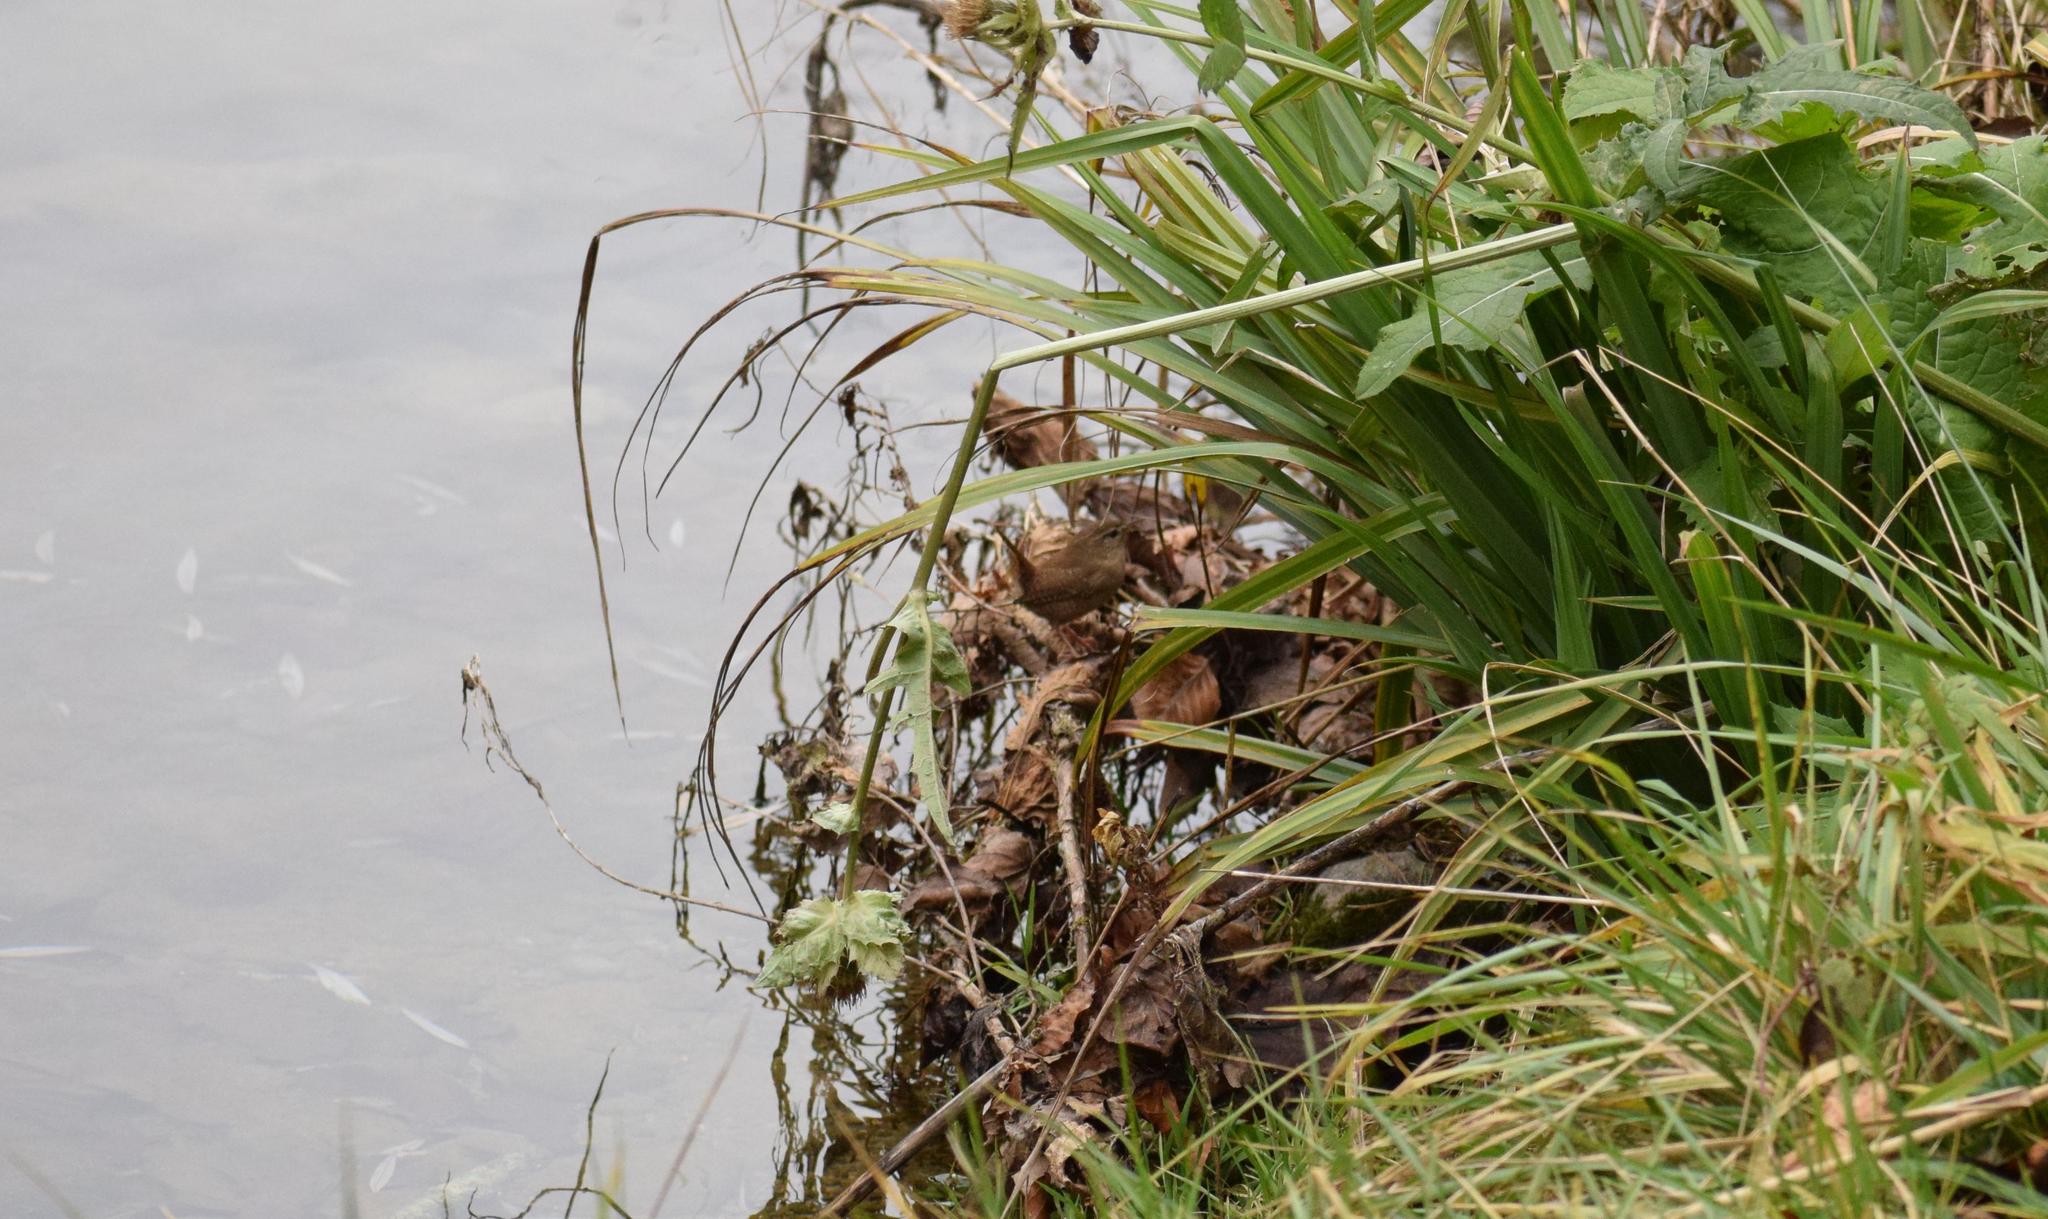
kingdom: Animalia
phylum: Chordata
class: Aves
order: Passeriformes
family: Troglodytidae
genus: Troglodytes
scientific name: Troglodytes troglodytes
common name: Eurasian wren
